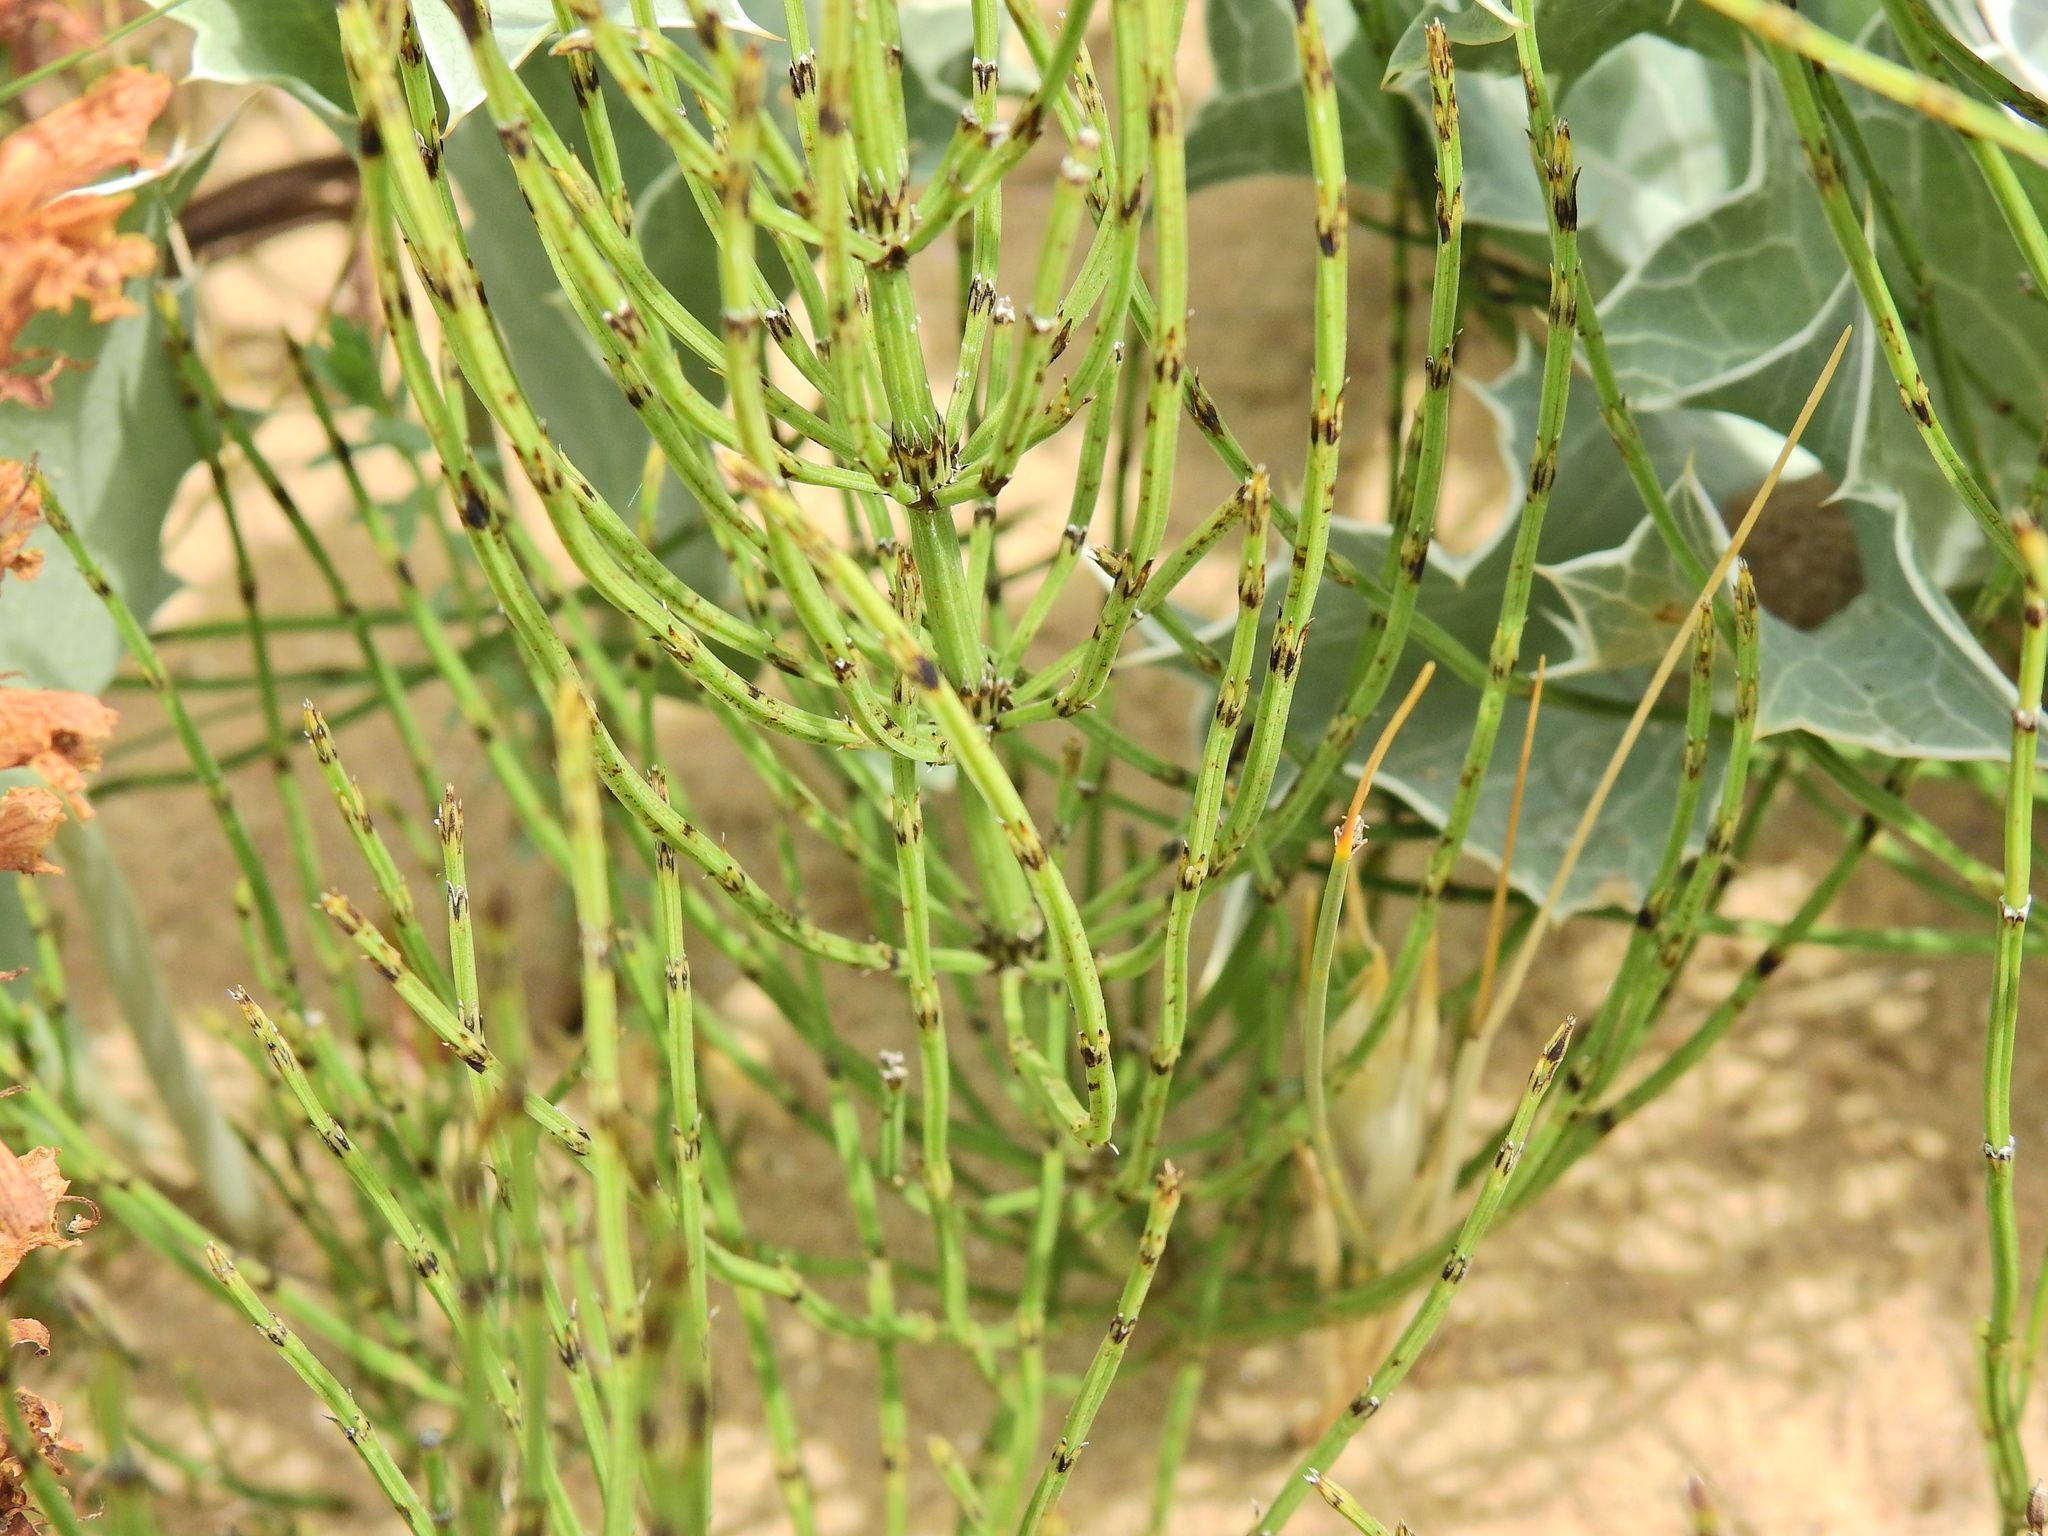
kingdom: Plantae
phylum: Tracheophyta
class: Polypodiopsida
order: Equisetales
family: Equisetaceae
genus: Equisetum
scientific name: Equisetum arvense
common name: Field horsetail
